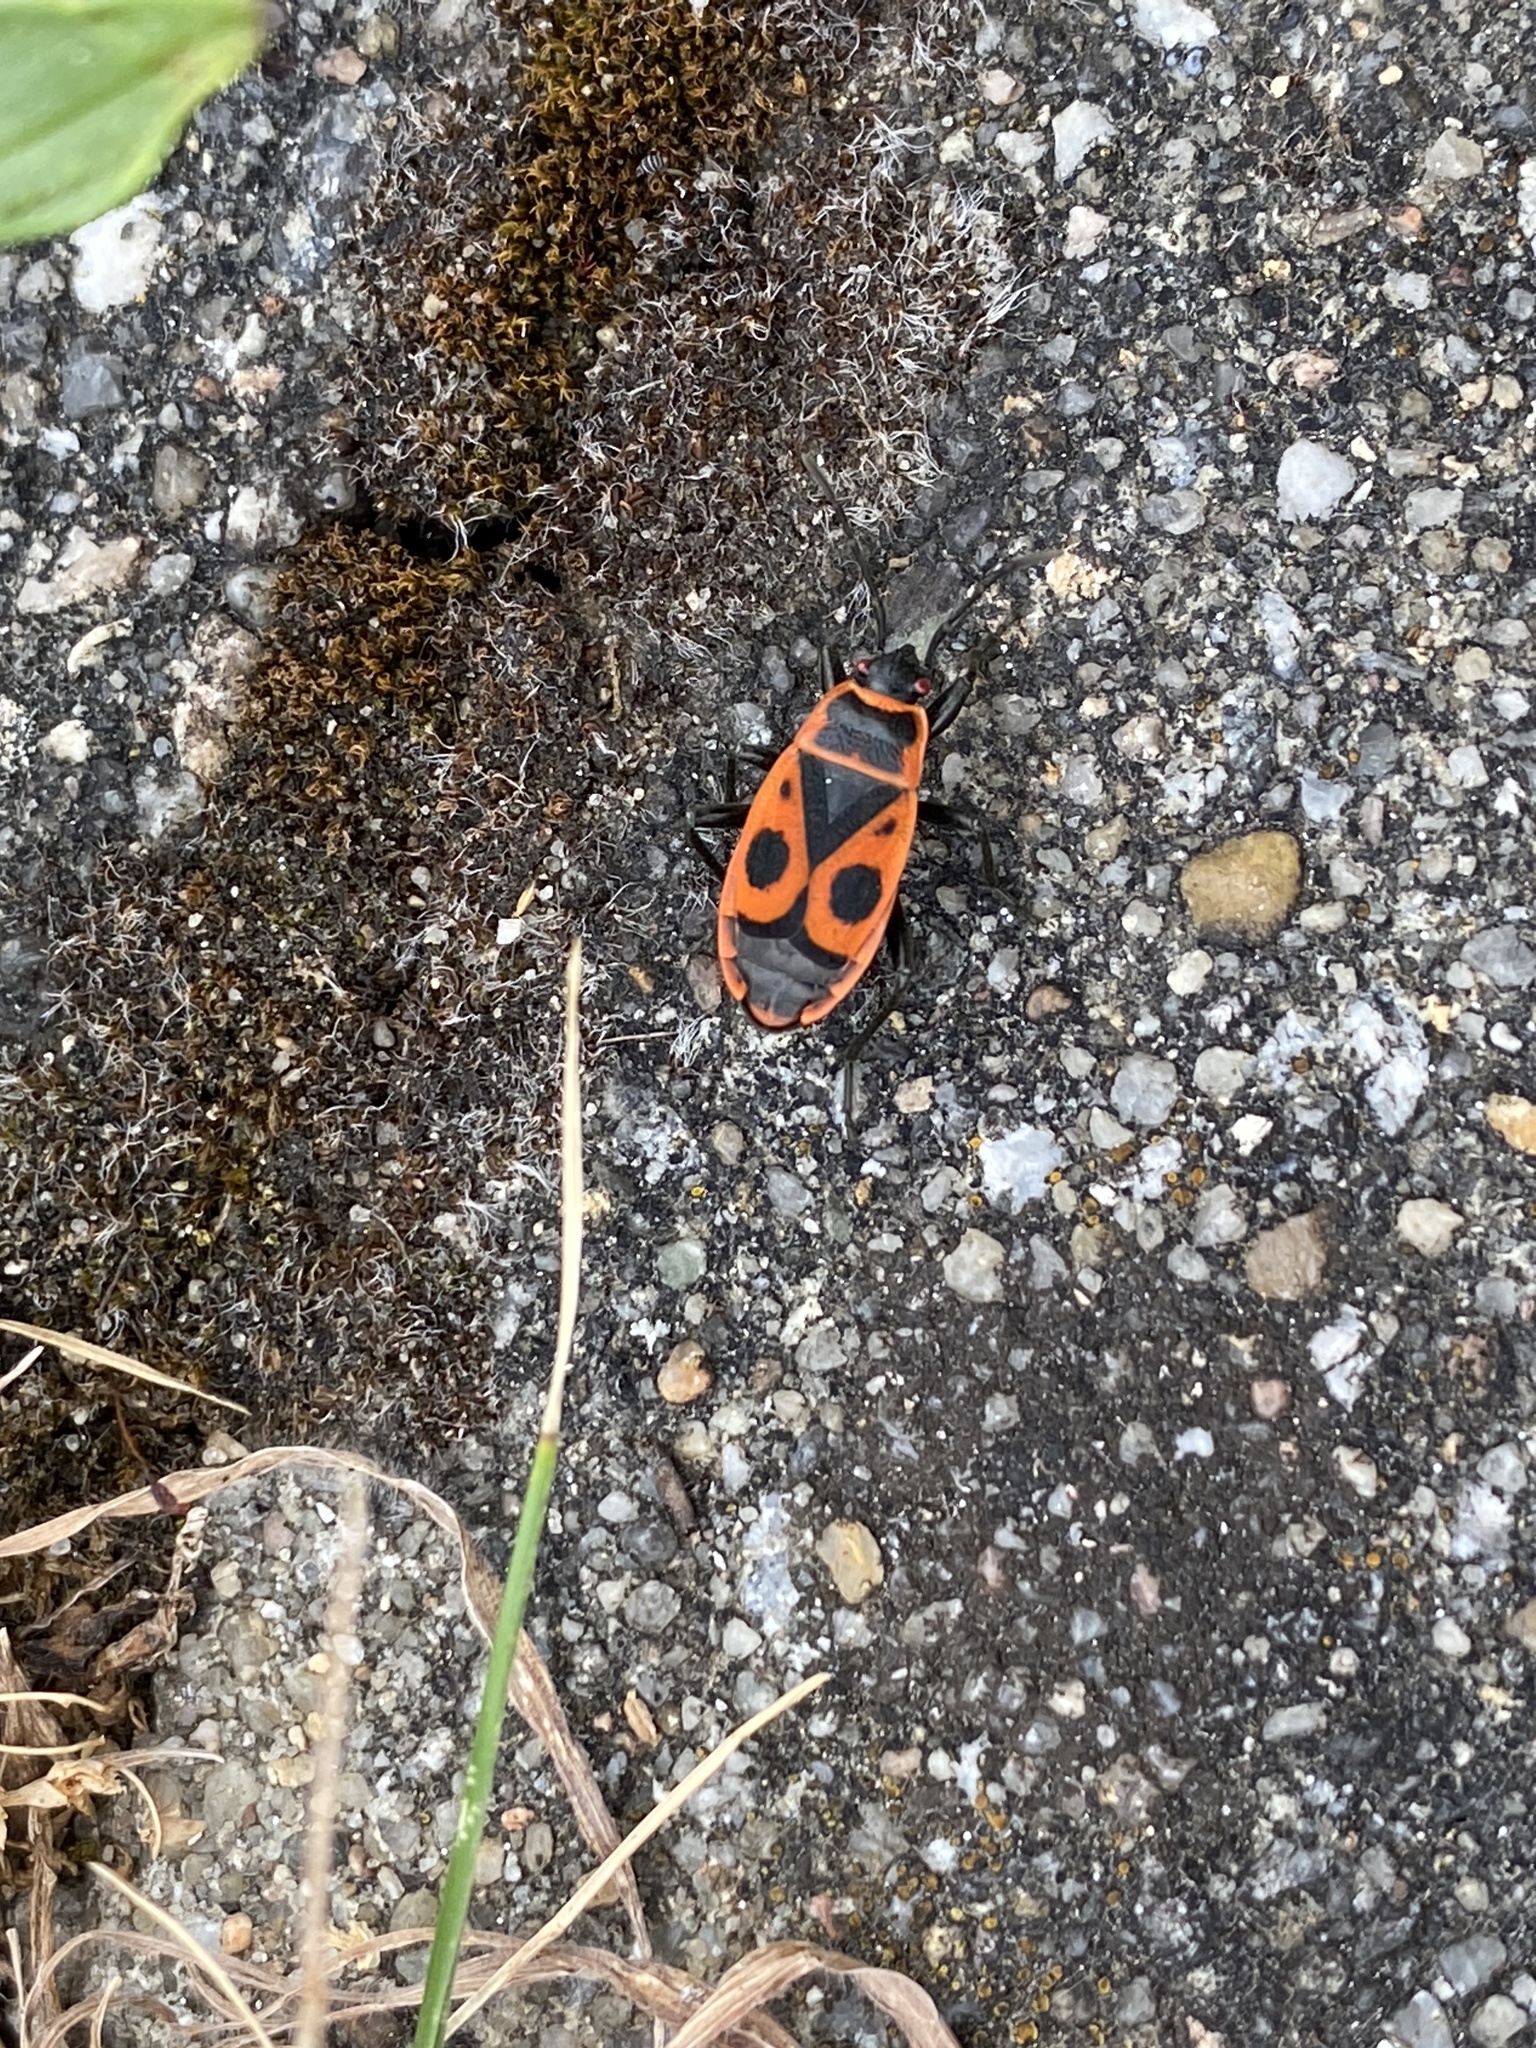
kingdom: Animalia
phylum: Arthropoda
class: Insecta
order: Hemiptera
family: Pyrrhocoridae
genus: Pyrrhocoris
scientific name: Pyrrhocoris apterus
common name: Firebug
